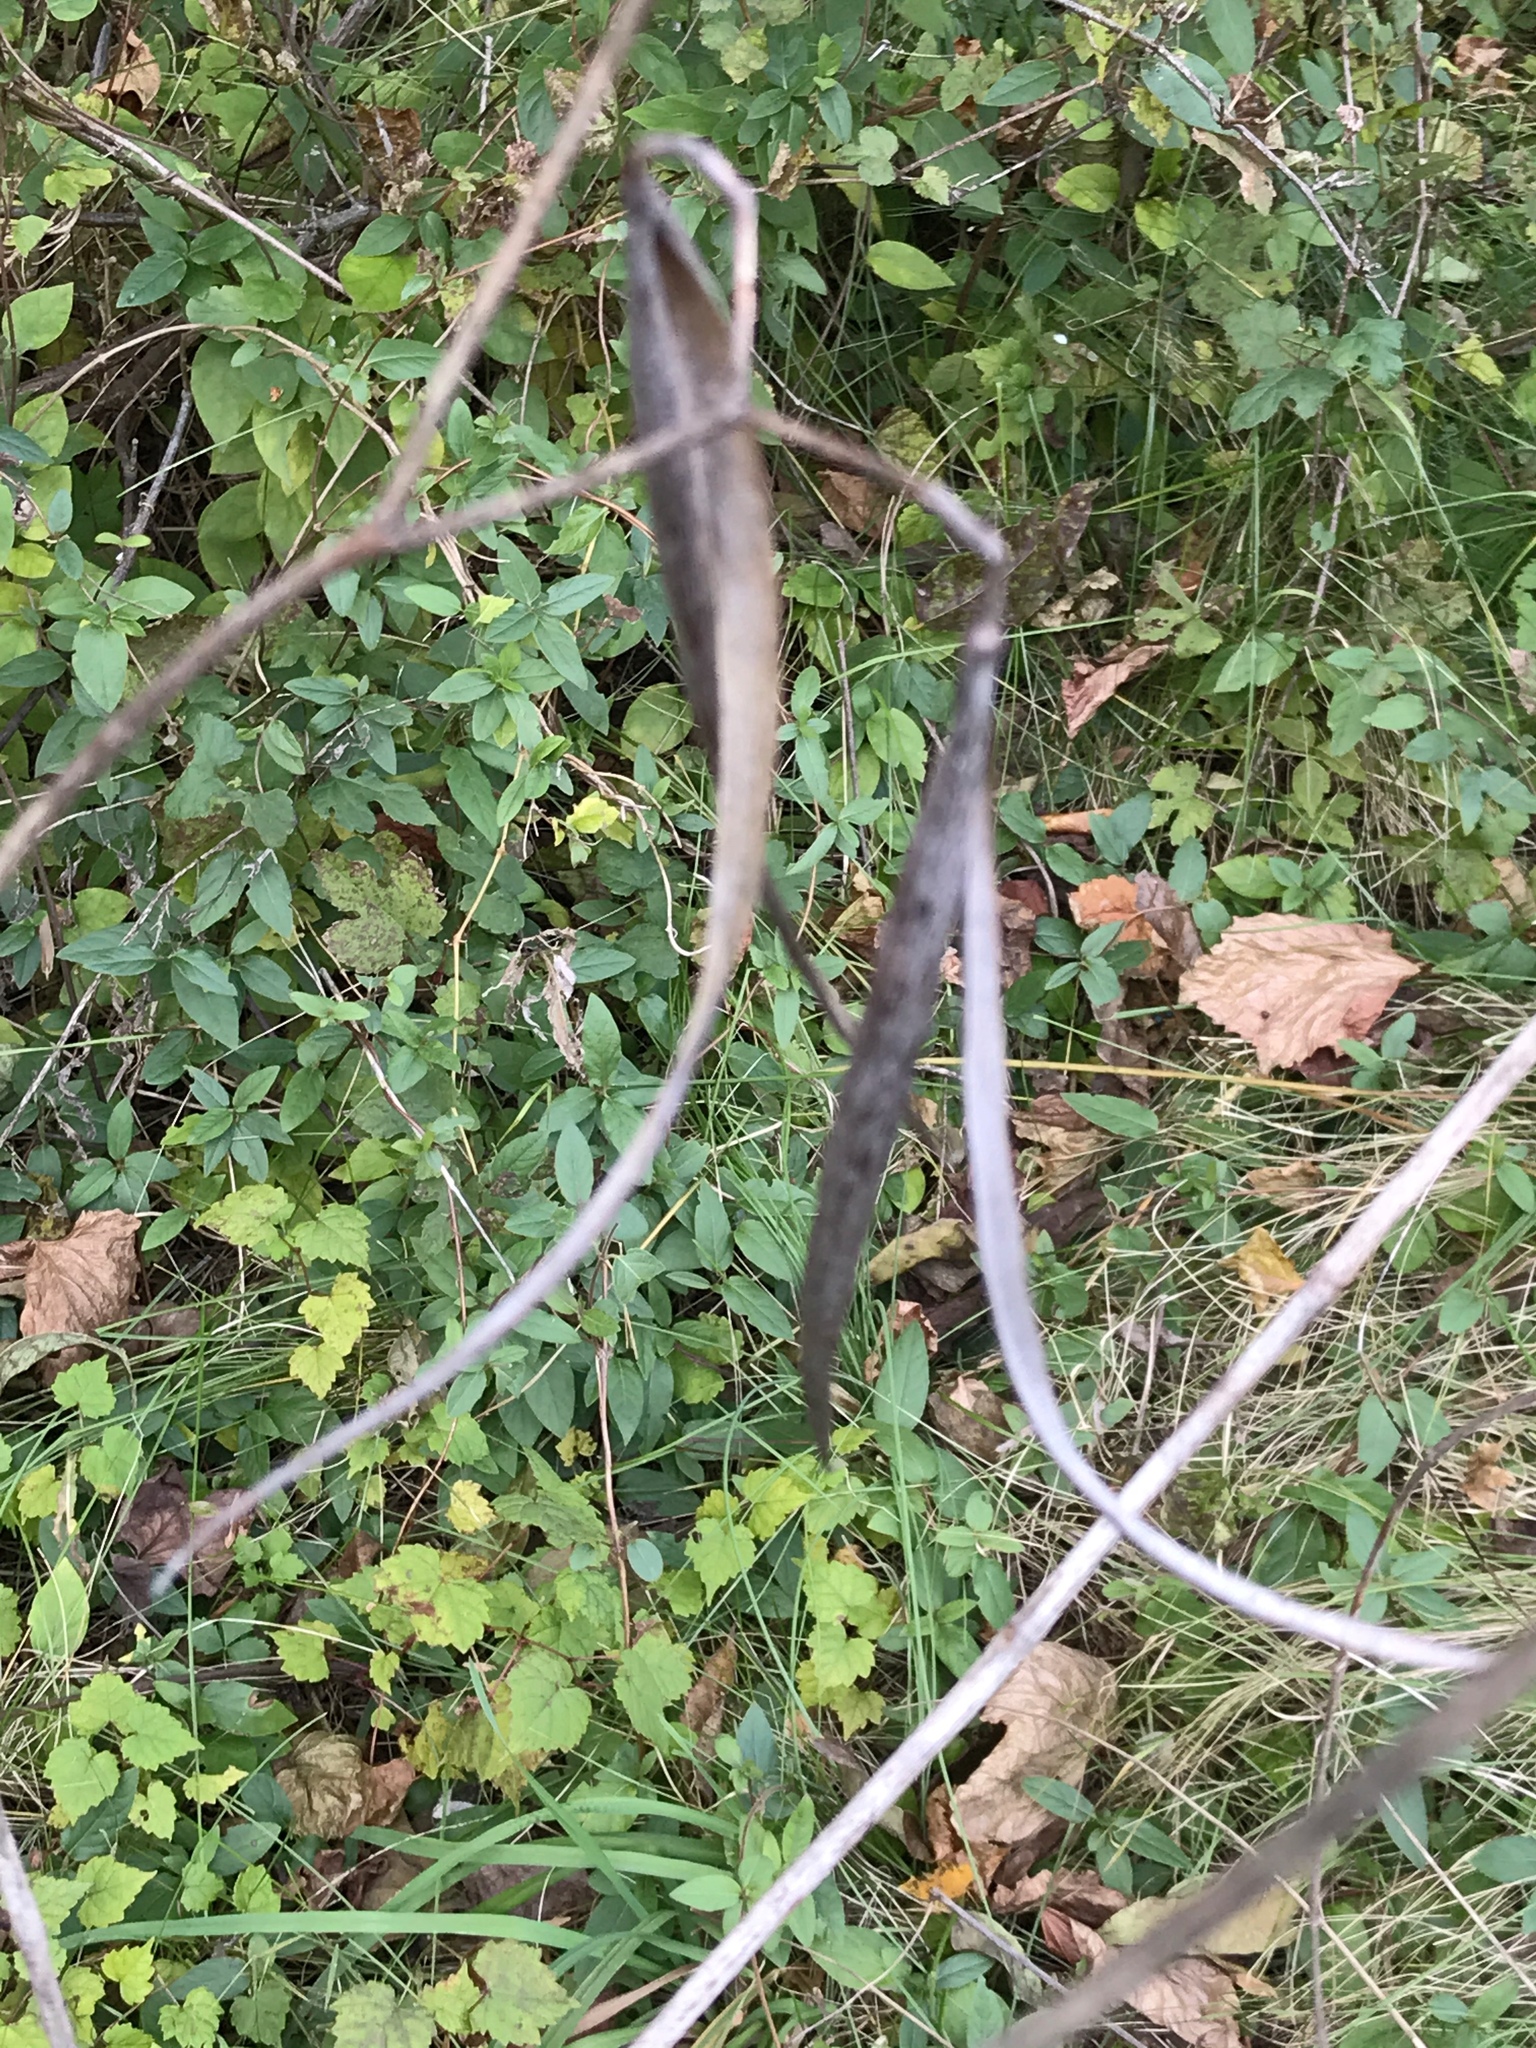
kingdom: Plantae
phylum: Tracheophyta
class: Magnoliopsida
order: Gentianales
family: Apocynaceae
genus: Apocynum
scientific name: Apocynum cannabinum
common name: Hemp dogbane
